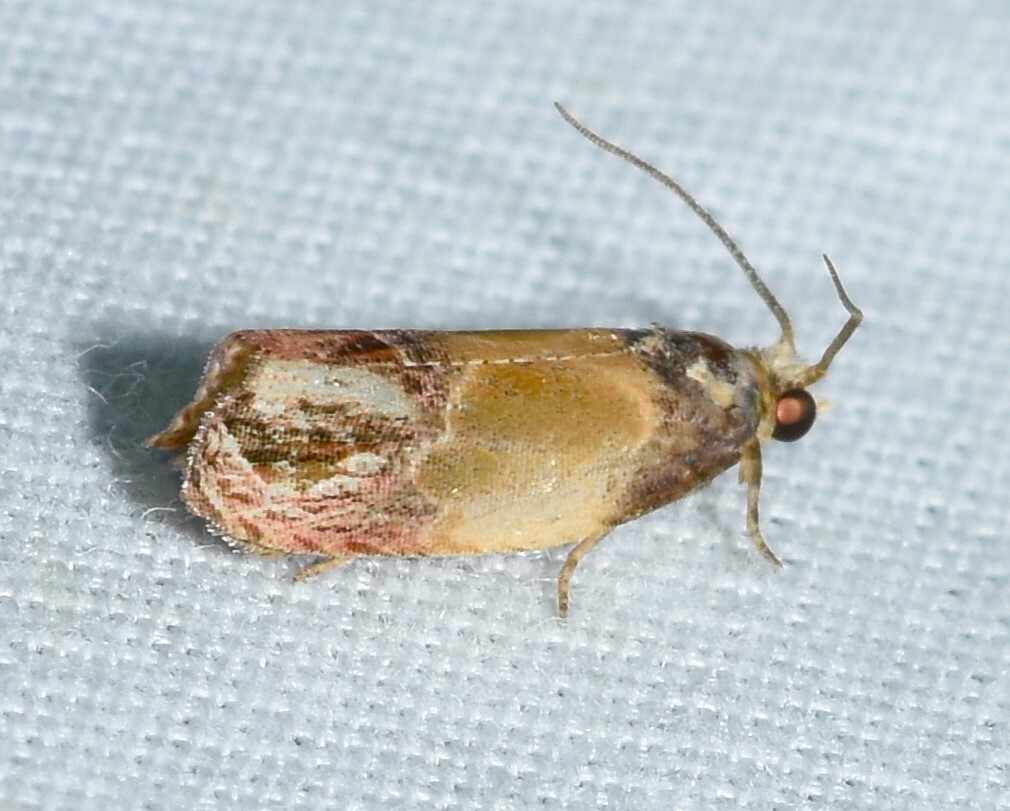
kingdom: Animalia
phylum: Arthropoda
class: Insecta
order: Lepidoptera
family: Tortricidae
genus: Eumarozia
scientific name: Eumarozia malachitana
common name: Sculptured moth
